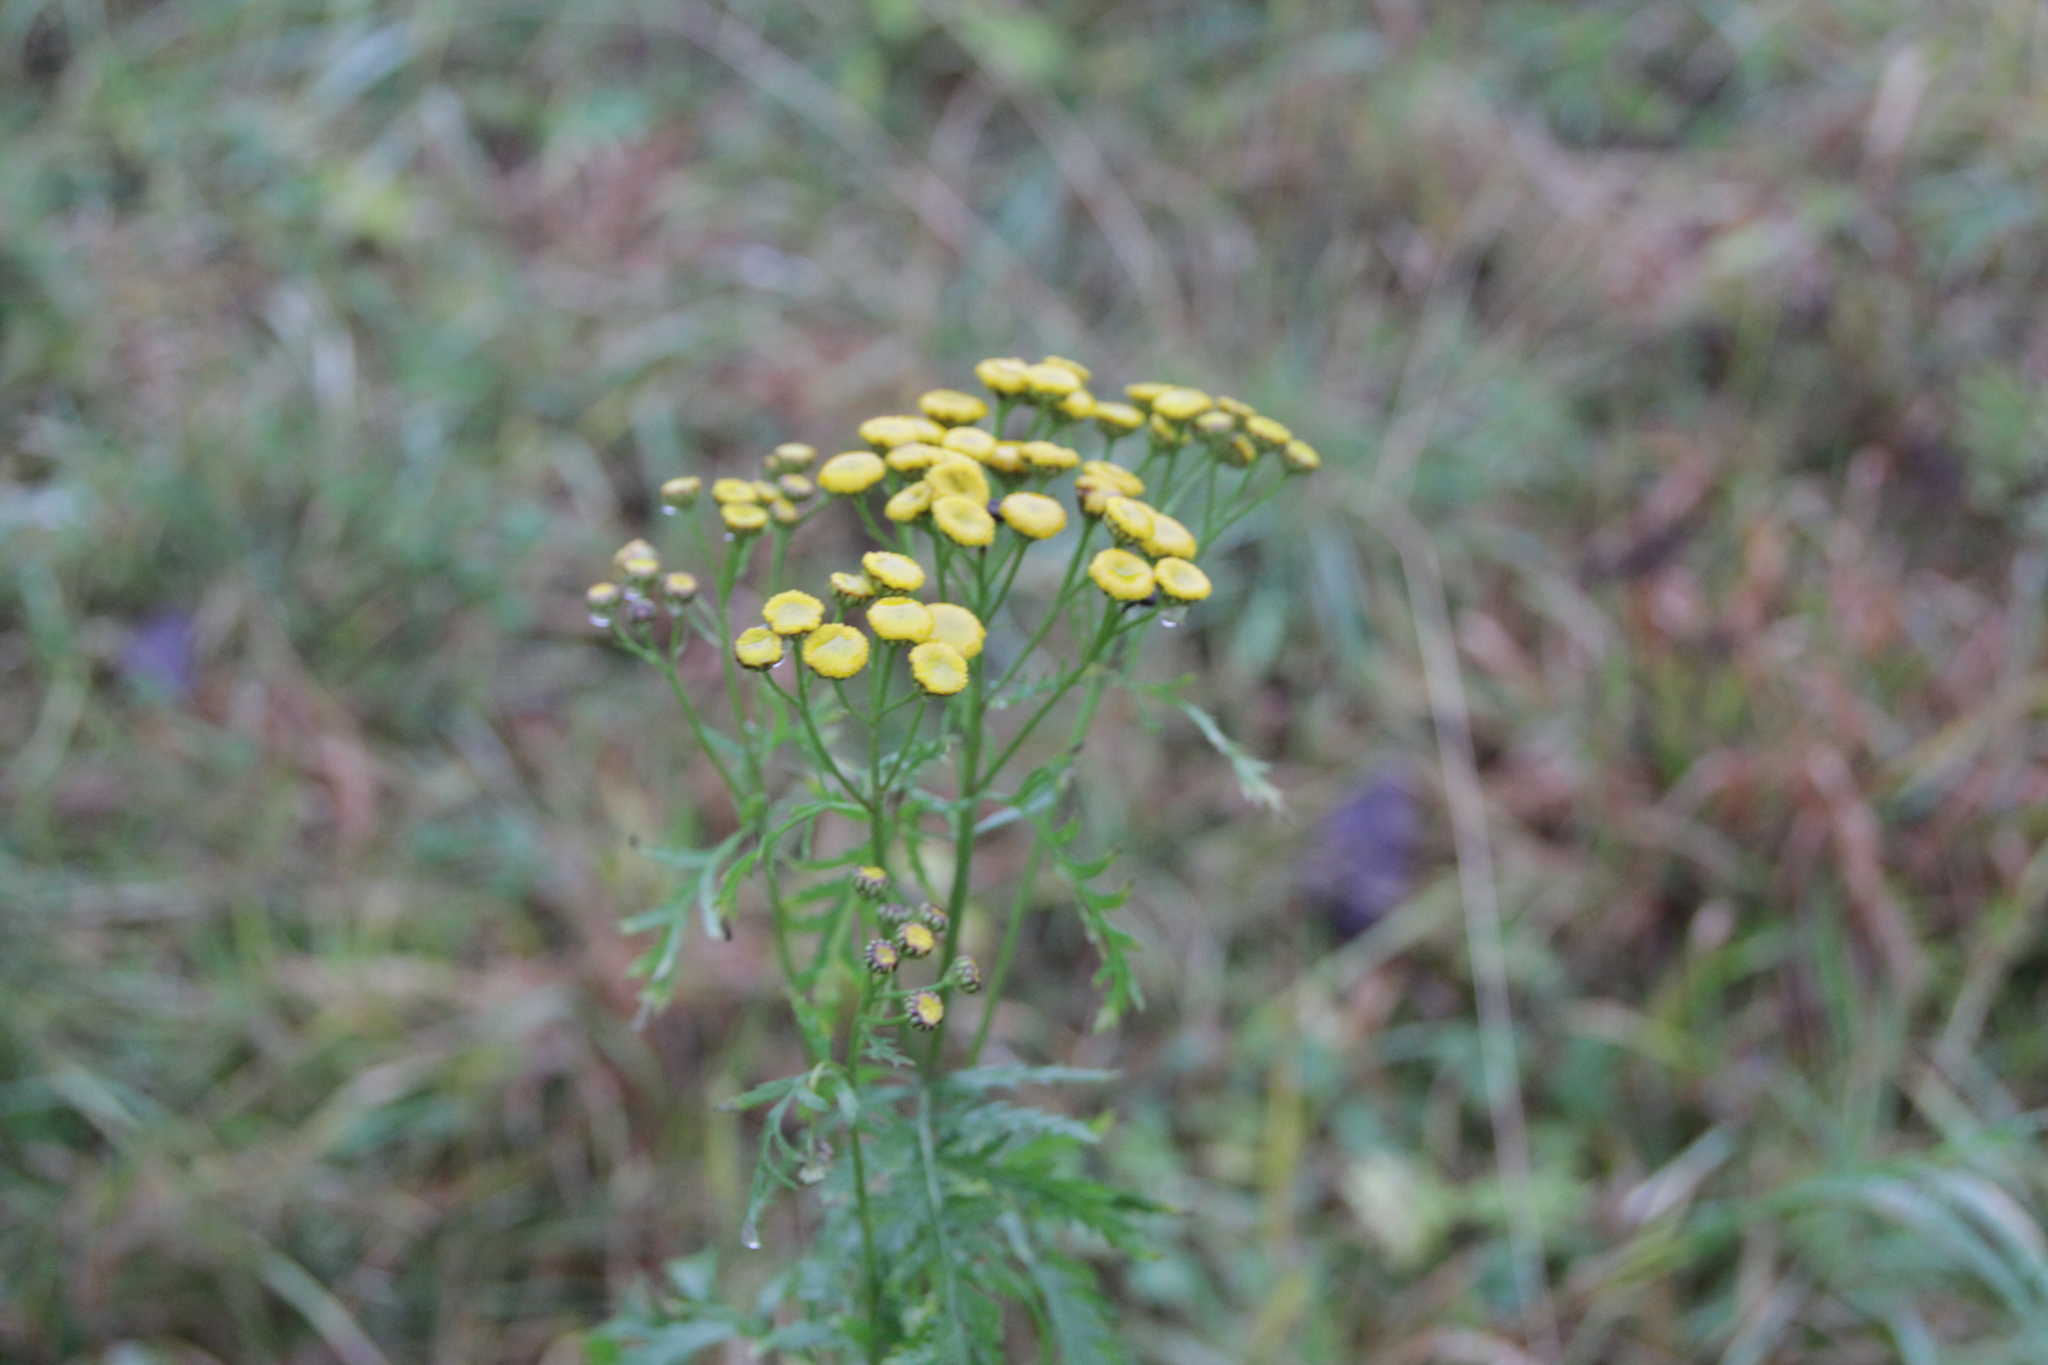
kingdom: Plantae
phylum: Tracheophyta
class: Magnoliopsida
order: Asterales
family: Asteraceae
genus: Tanacetum
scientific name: Tanacetum vulgare
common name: Common tansy
